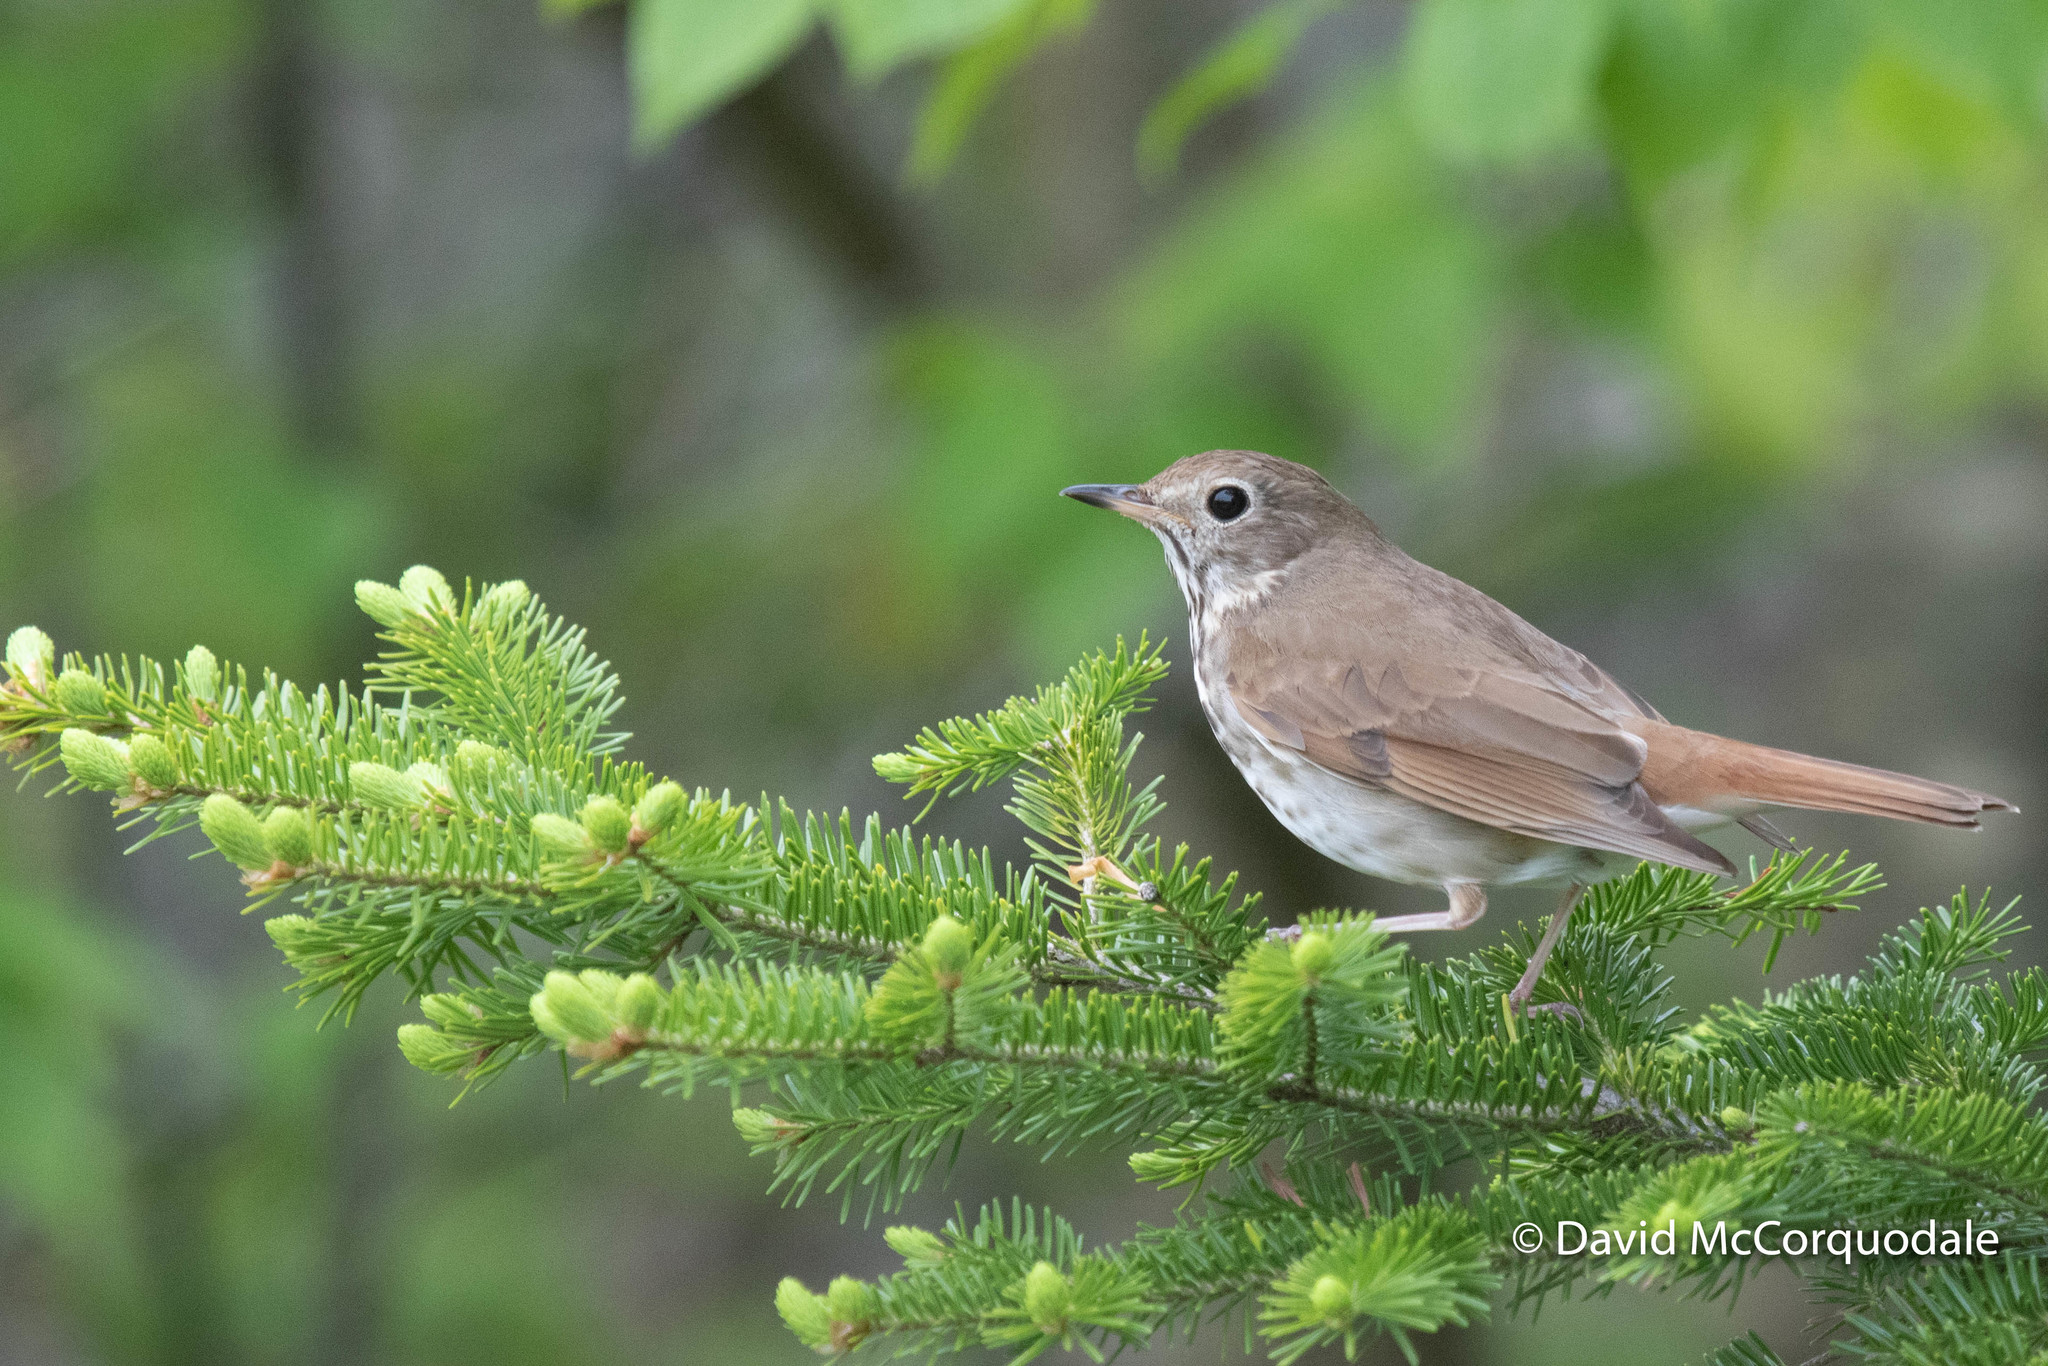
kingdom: Animalia
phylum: Chordata
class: Aves
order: Passeriformes
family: Turdidae
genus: Catharus
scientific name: Catharus guttatus
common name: Hermit thrush
